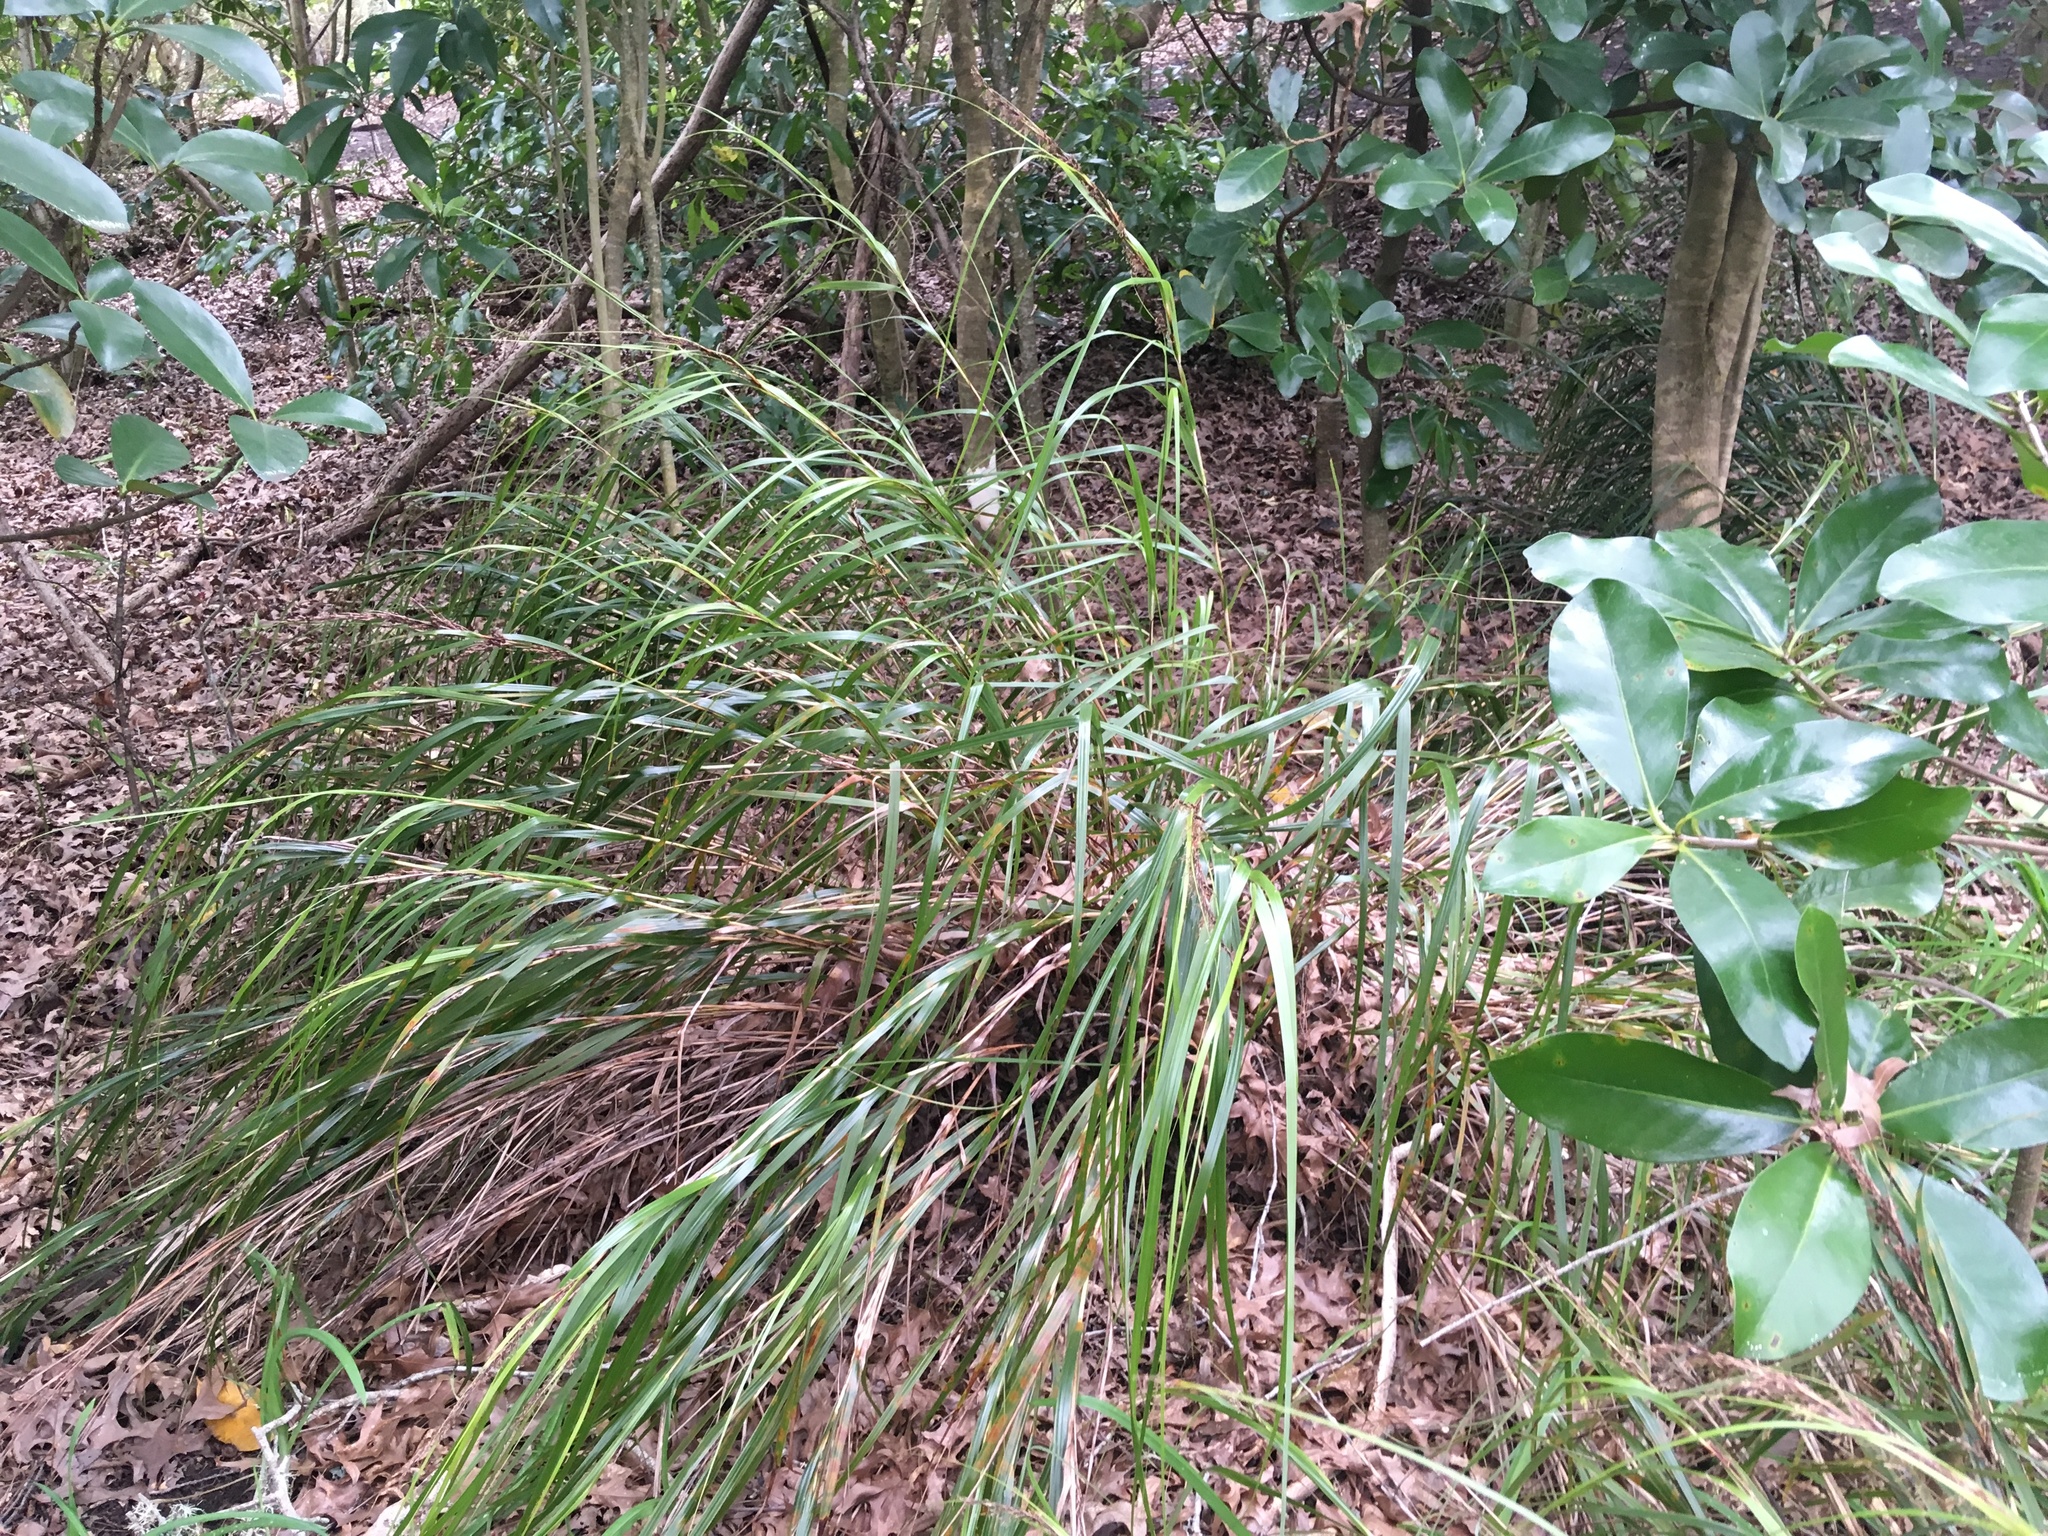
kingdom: Plantae
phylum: Tracheophyta
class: Liliopsida
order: Poales
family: Cyperaceae
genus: Gahnia
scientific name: Gahnia lacera
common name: Sawsedge
